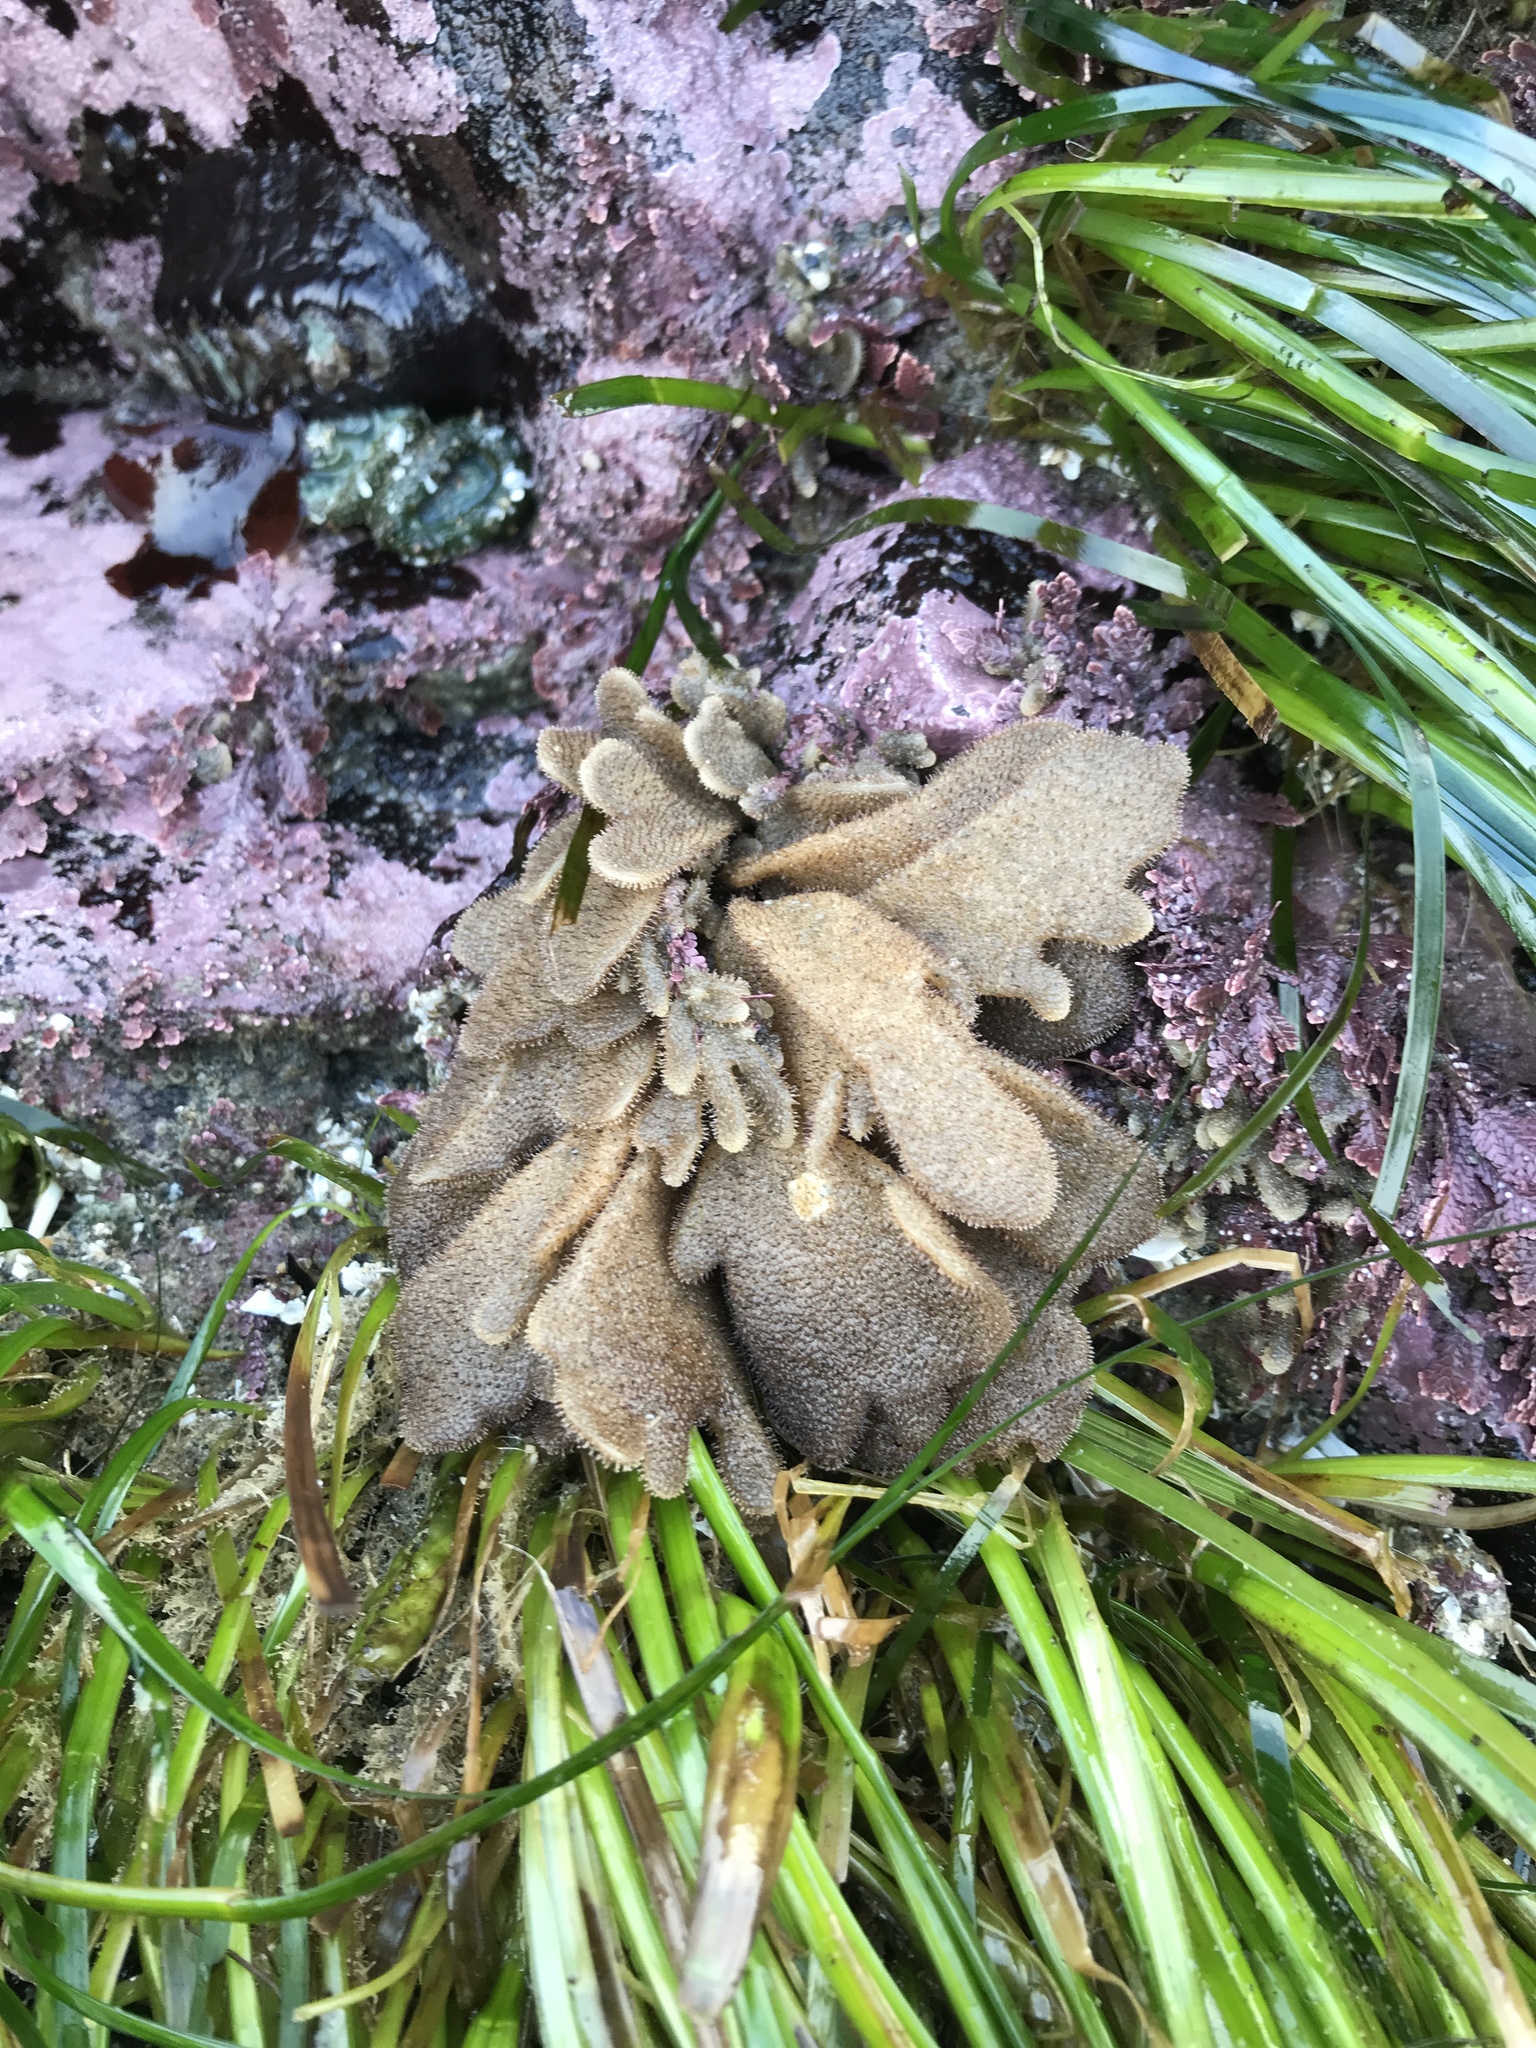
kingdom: Animalia
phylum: Bryozoa
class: Gymnolaemata
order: Ctenostomatida
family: Flustrellidridae
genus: Flustrellidra
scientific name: Flustrellidra corniculata
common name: Spiny leather bryozoan
